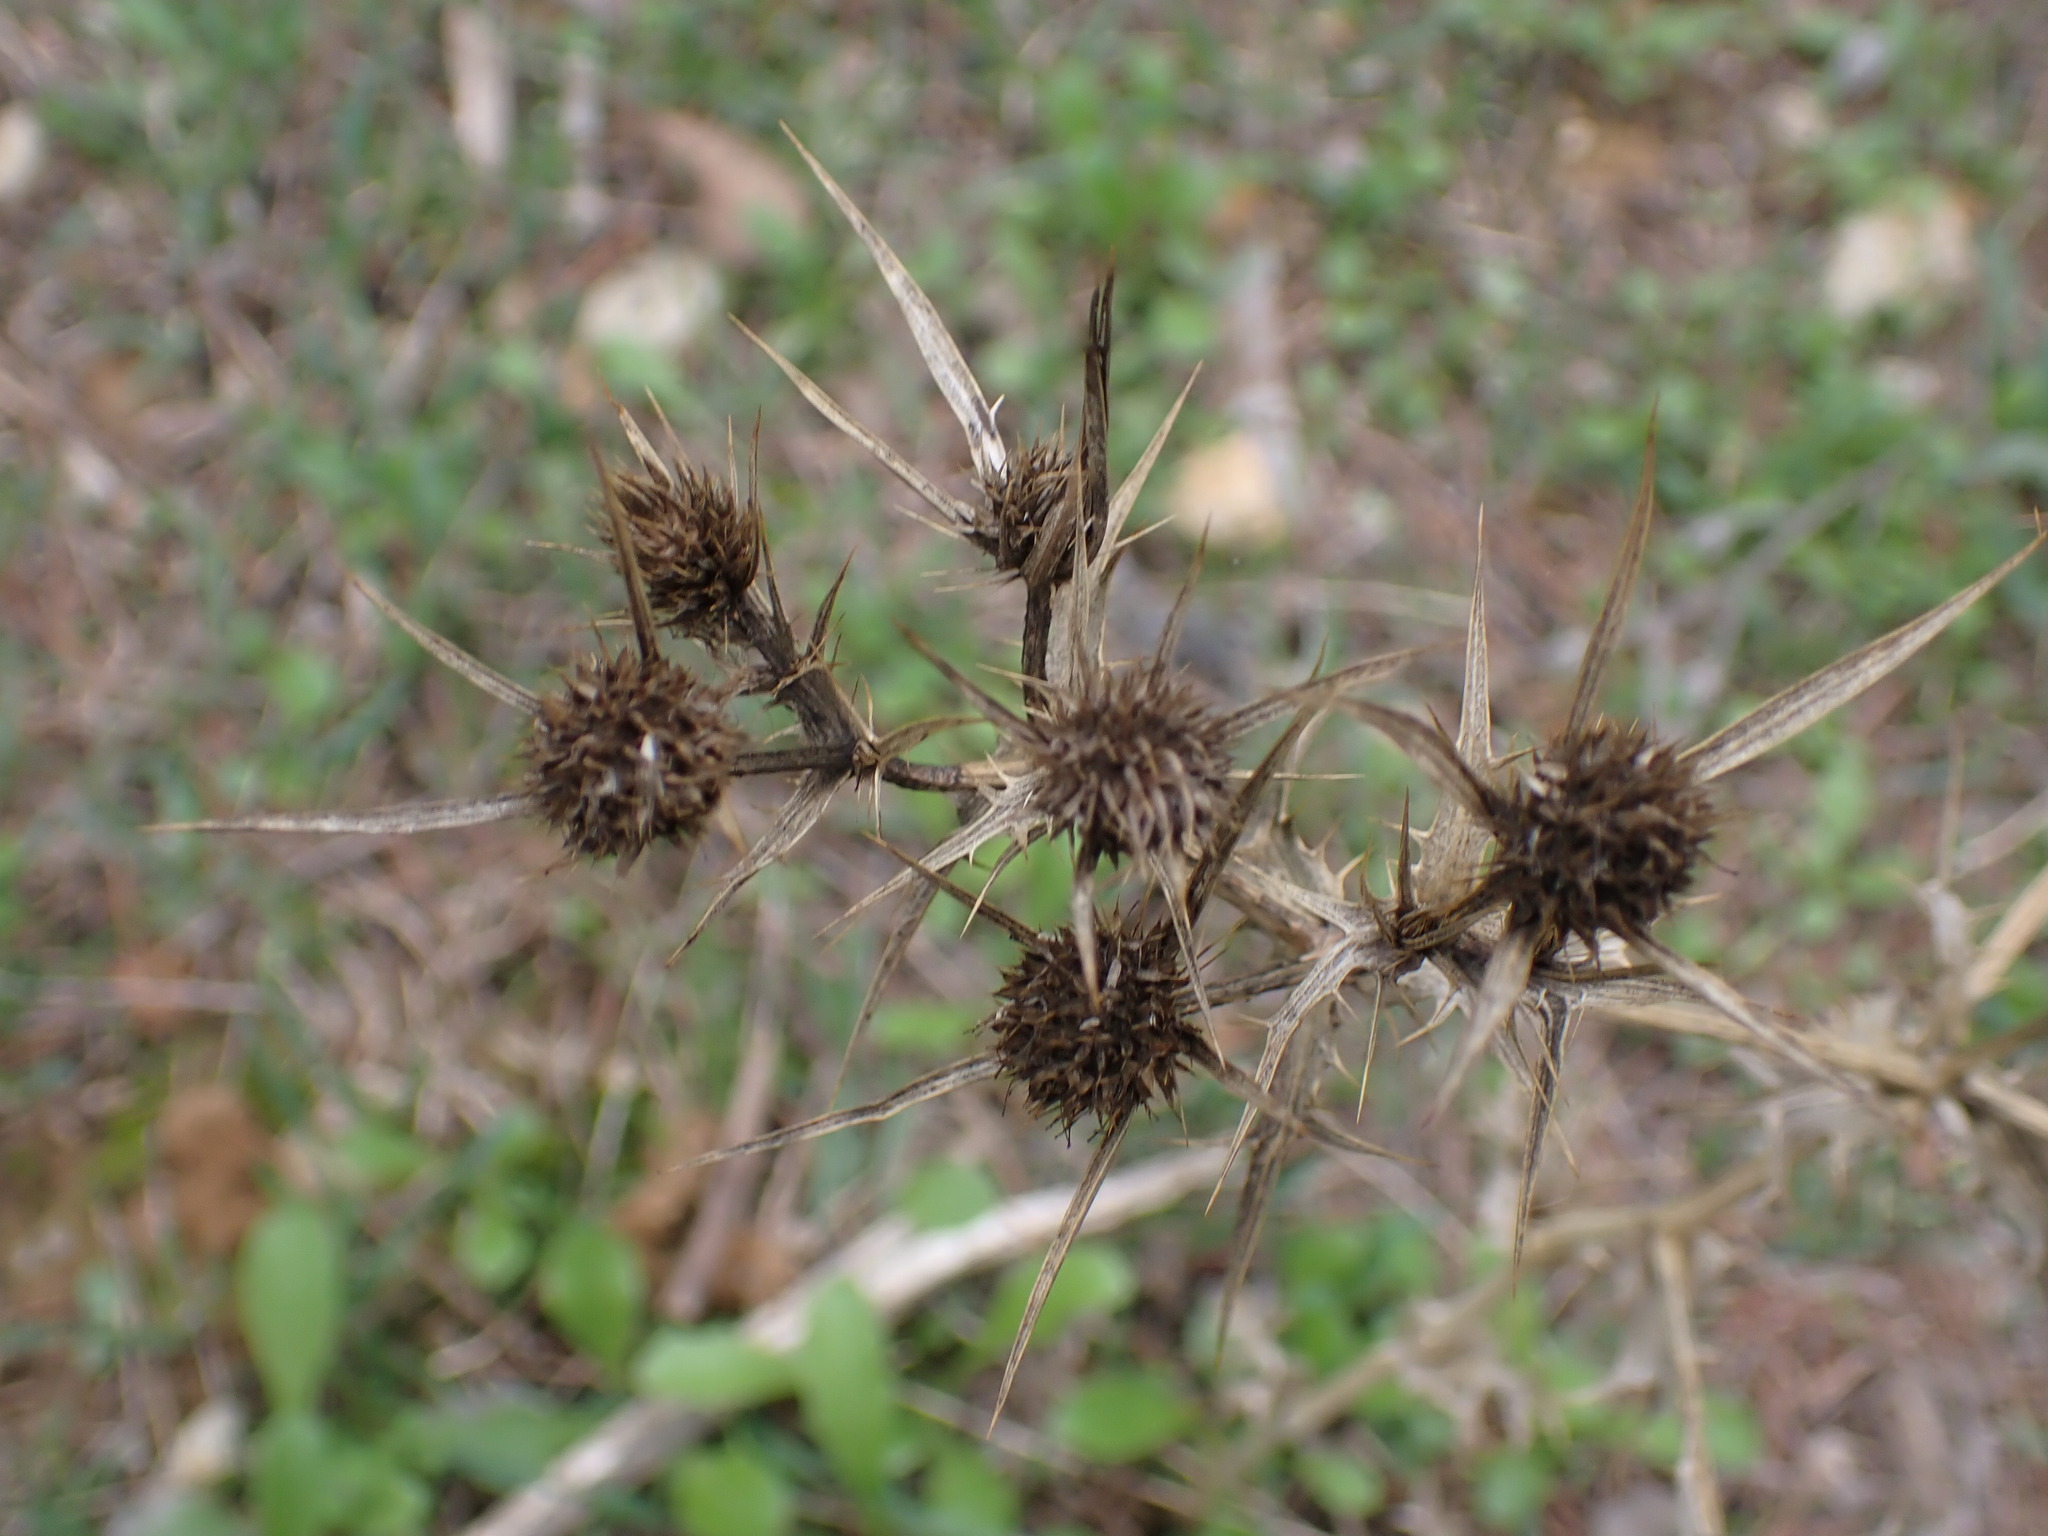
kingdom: Plantae
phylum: Tracheophyta
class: Magnoliopsida
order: Apiales
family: Apiaceae
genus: Eryngium
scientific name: Eryngium campestre
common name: Field eryngo
